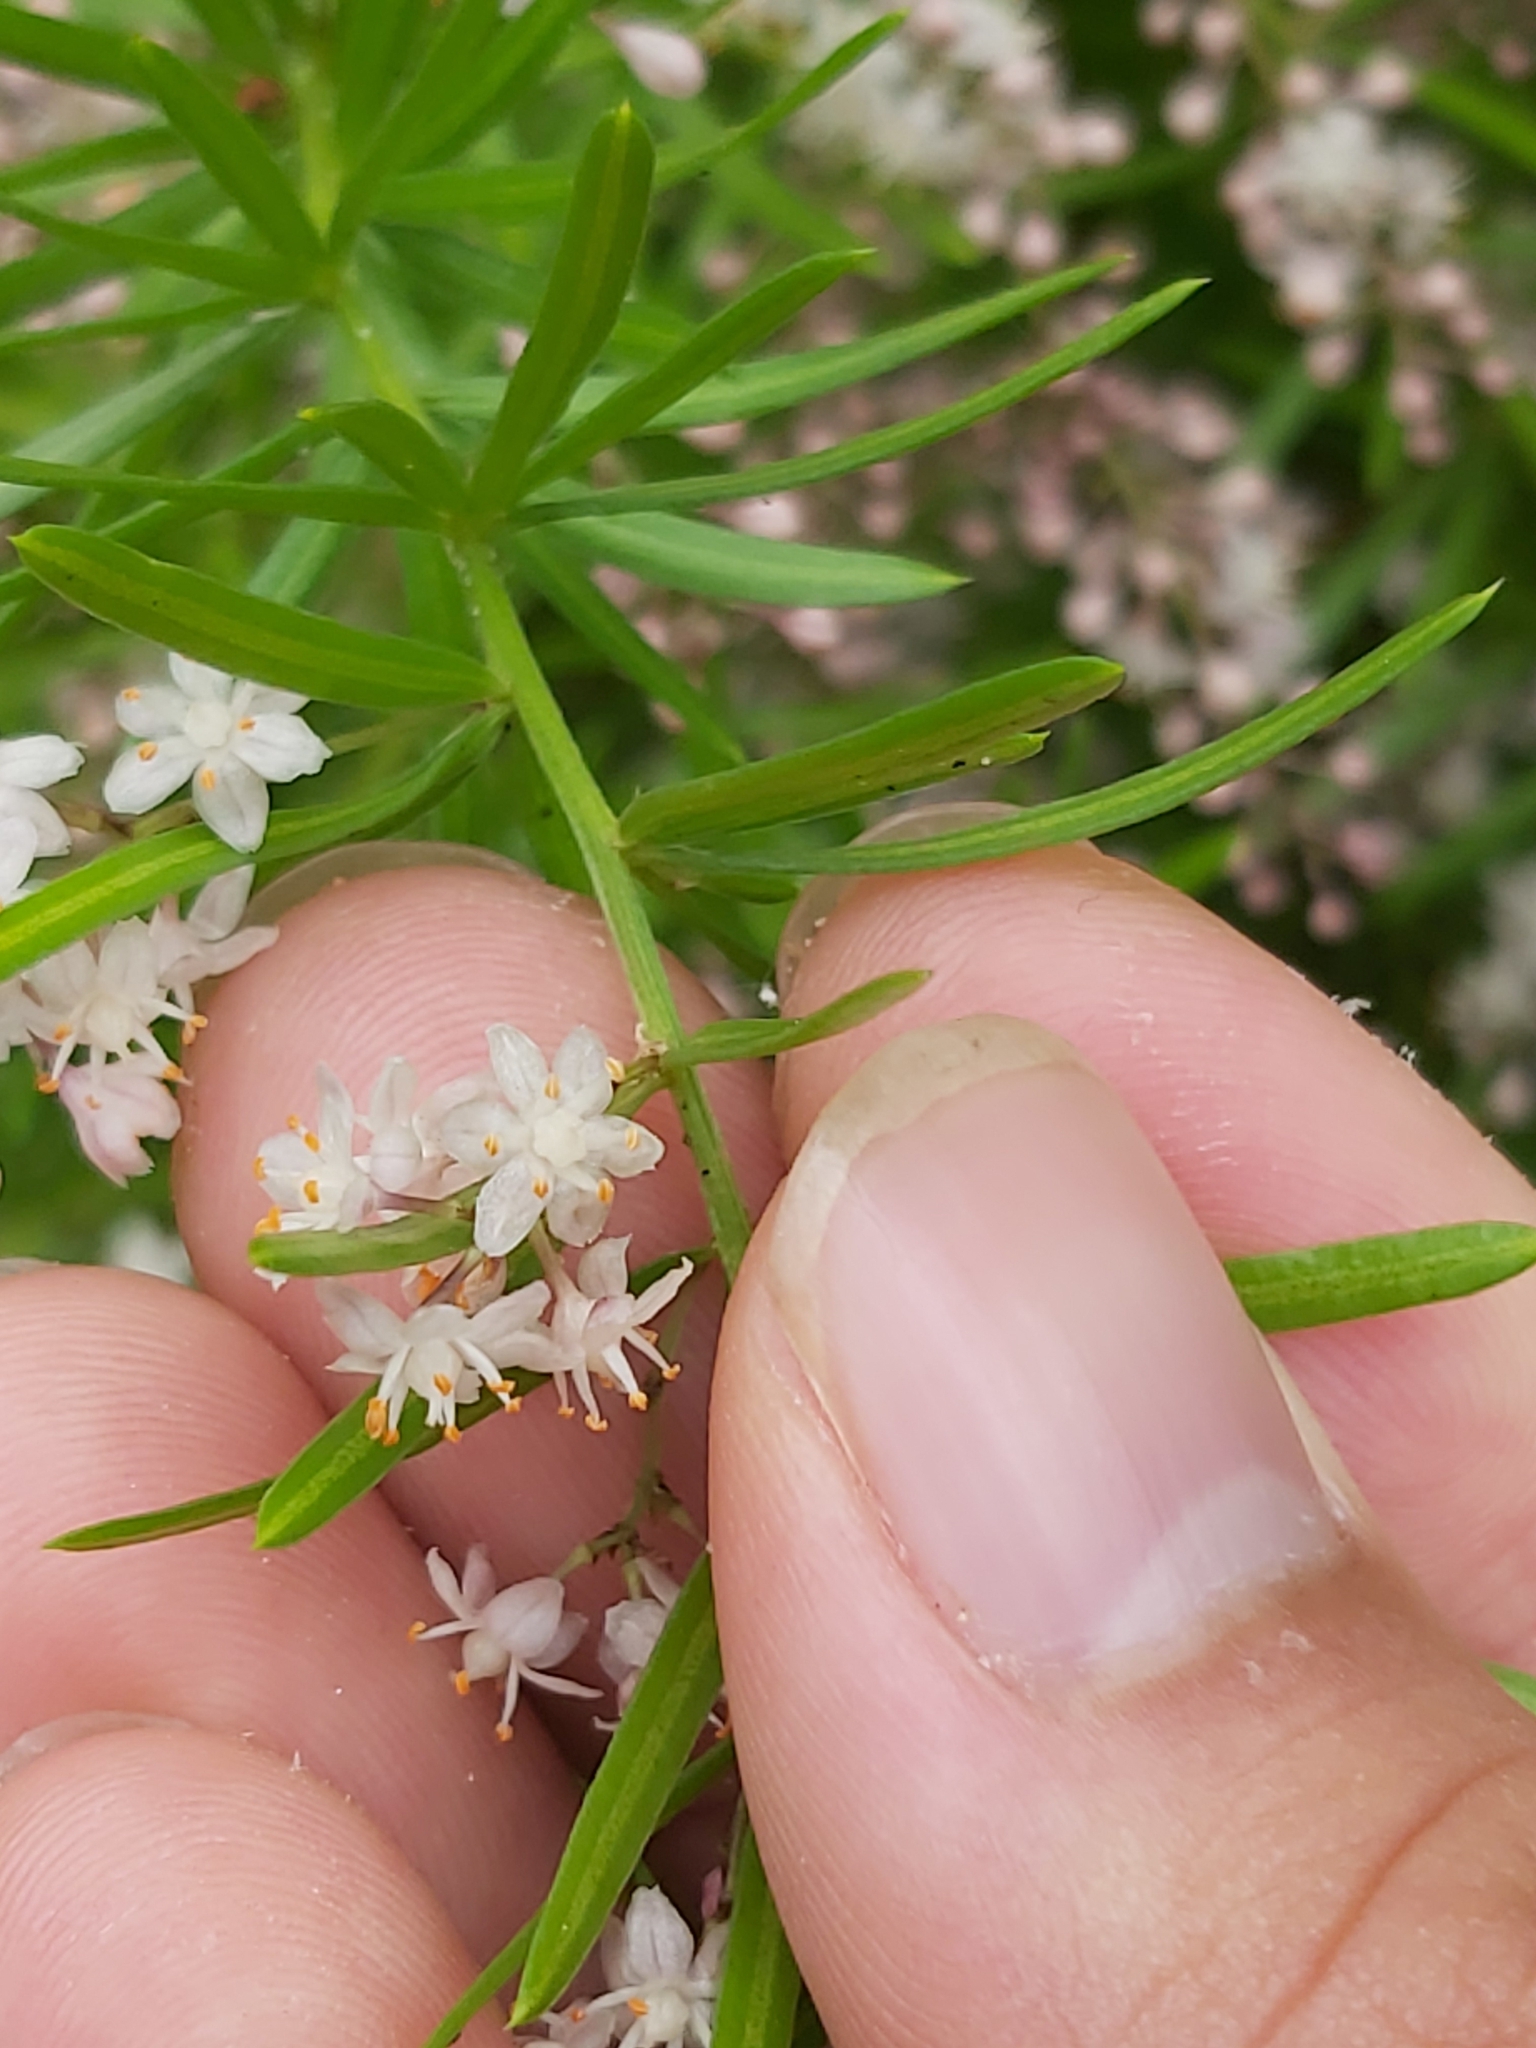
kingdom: Plantae
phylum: Tracheophyta
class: Liliopsida
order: Asparagales
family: Asparagaceae
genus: Asparagus
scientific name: Asparagus aethiopicus
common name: Sprenger's asparagus fern
